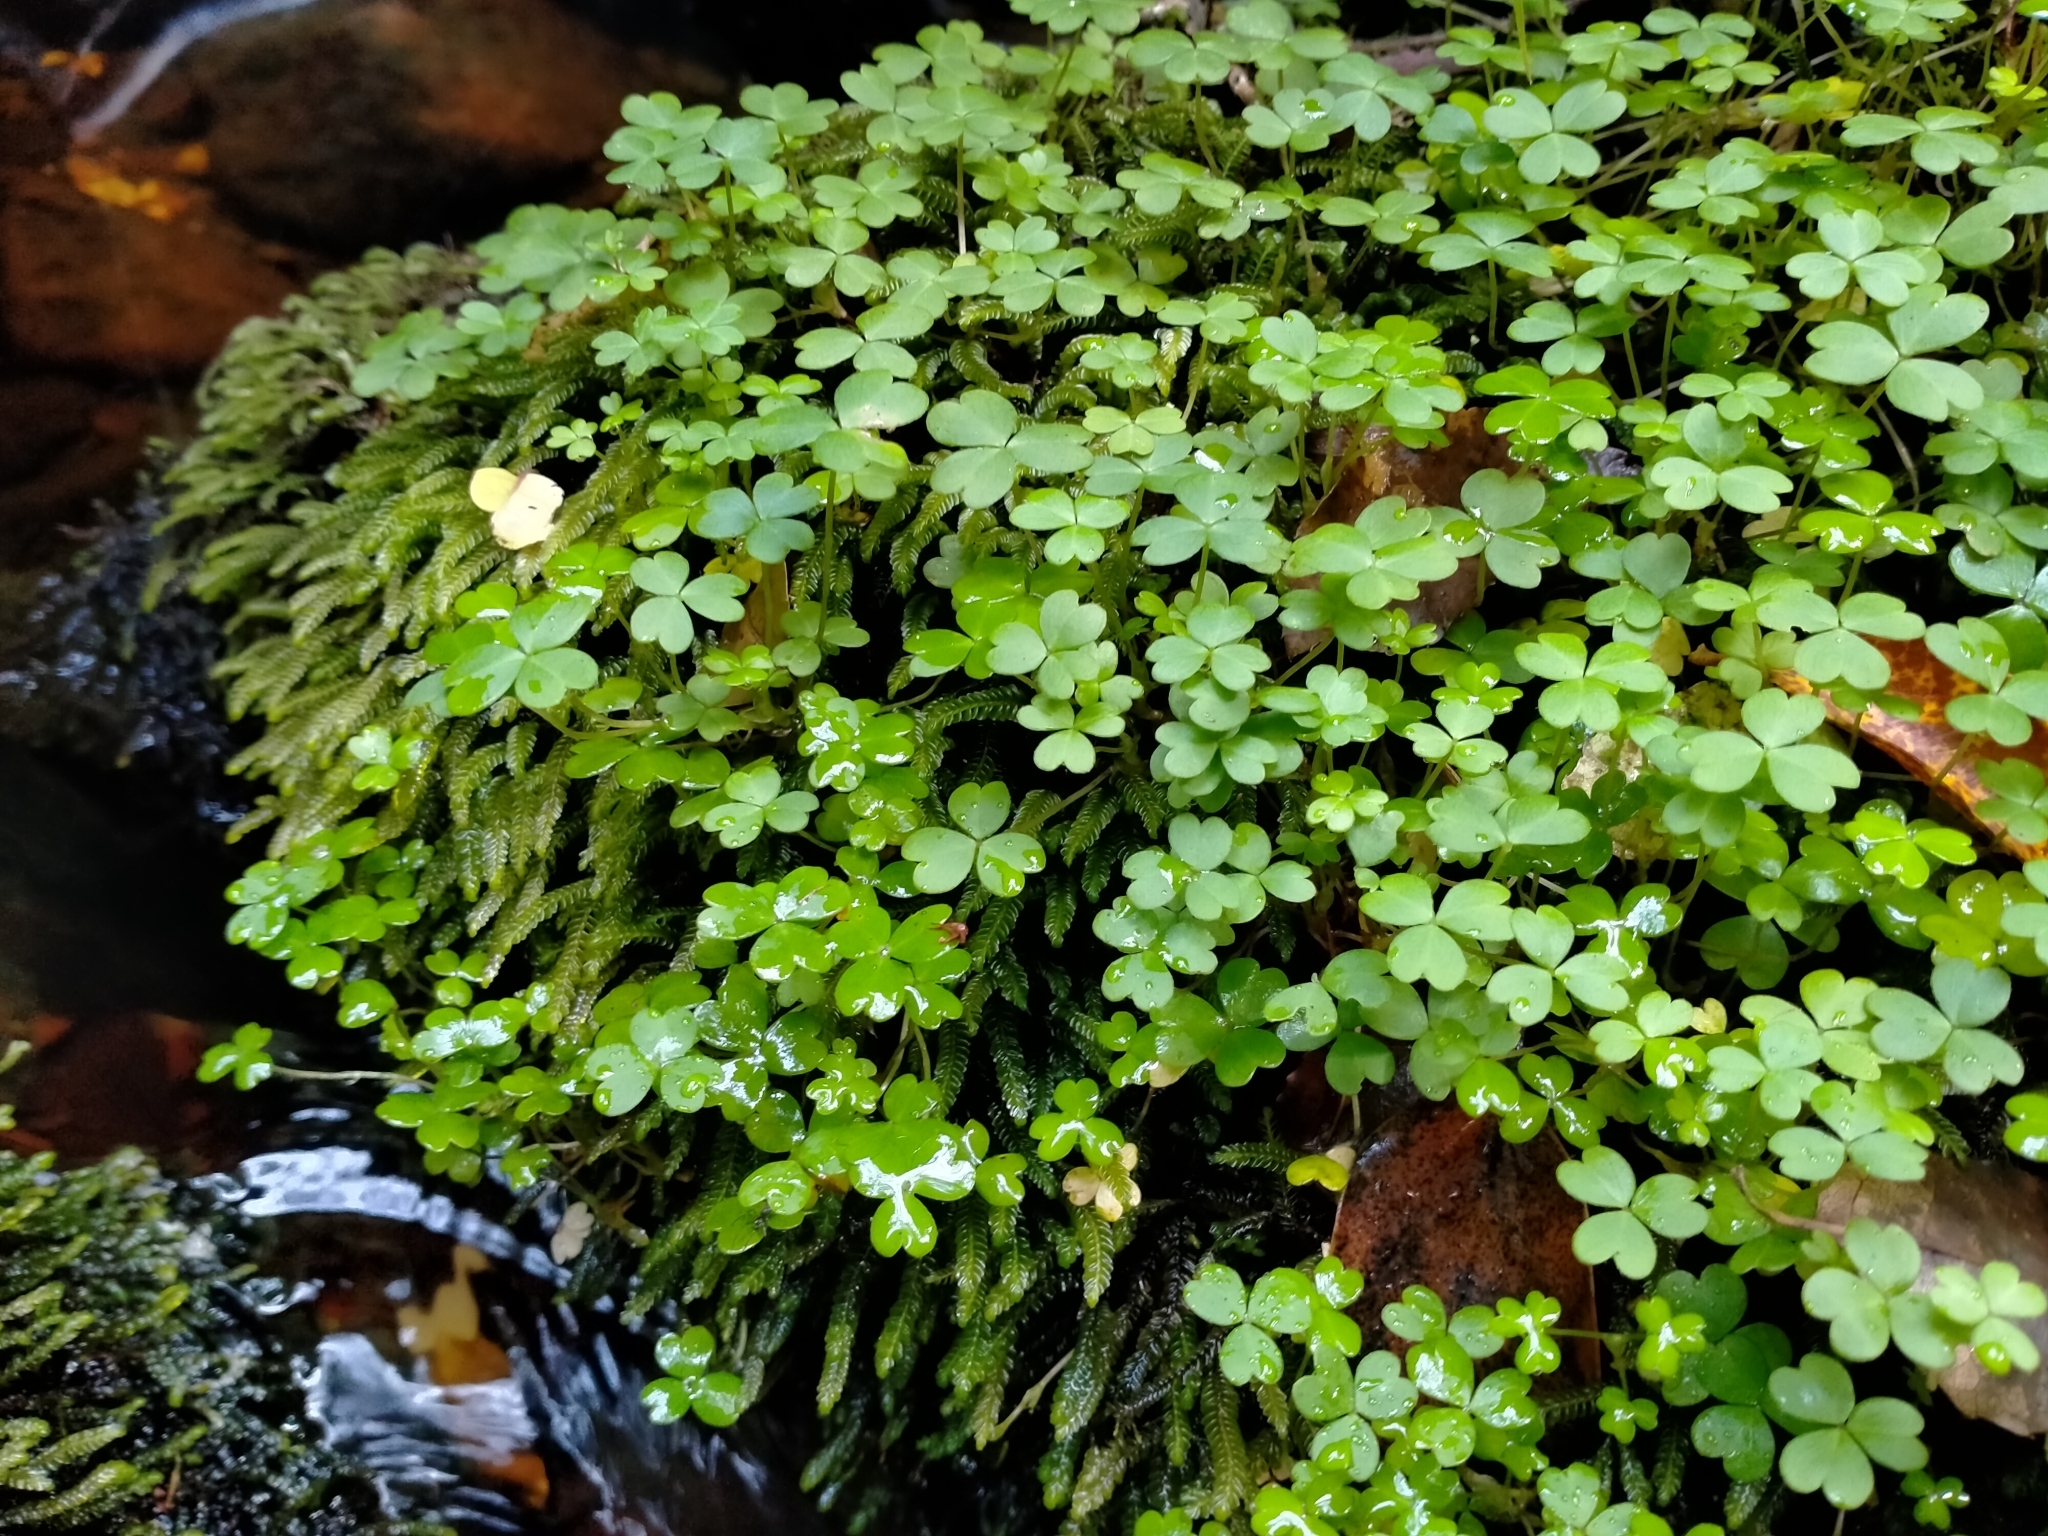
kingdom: Plantae
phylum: Tracheophyta
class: Magnoliopsida
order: Oxalidales
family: Oxalidaceae
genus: Oxalis
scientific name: Oxalis magellanica
